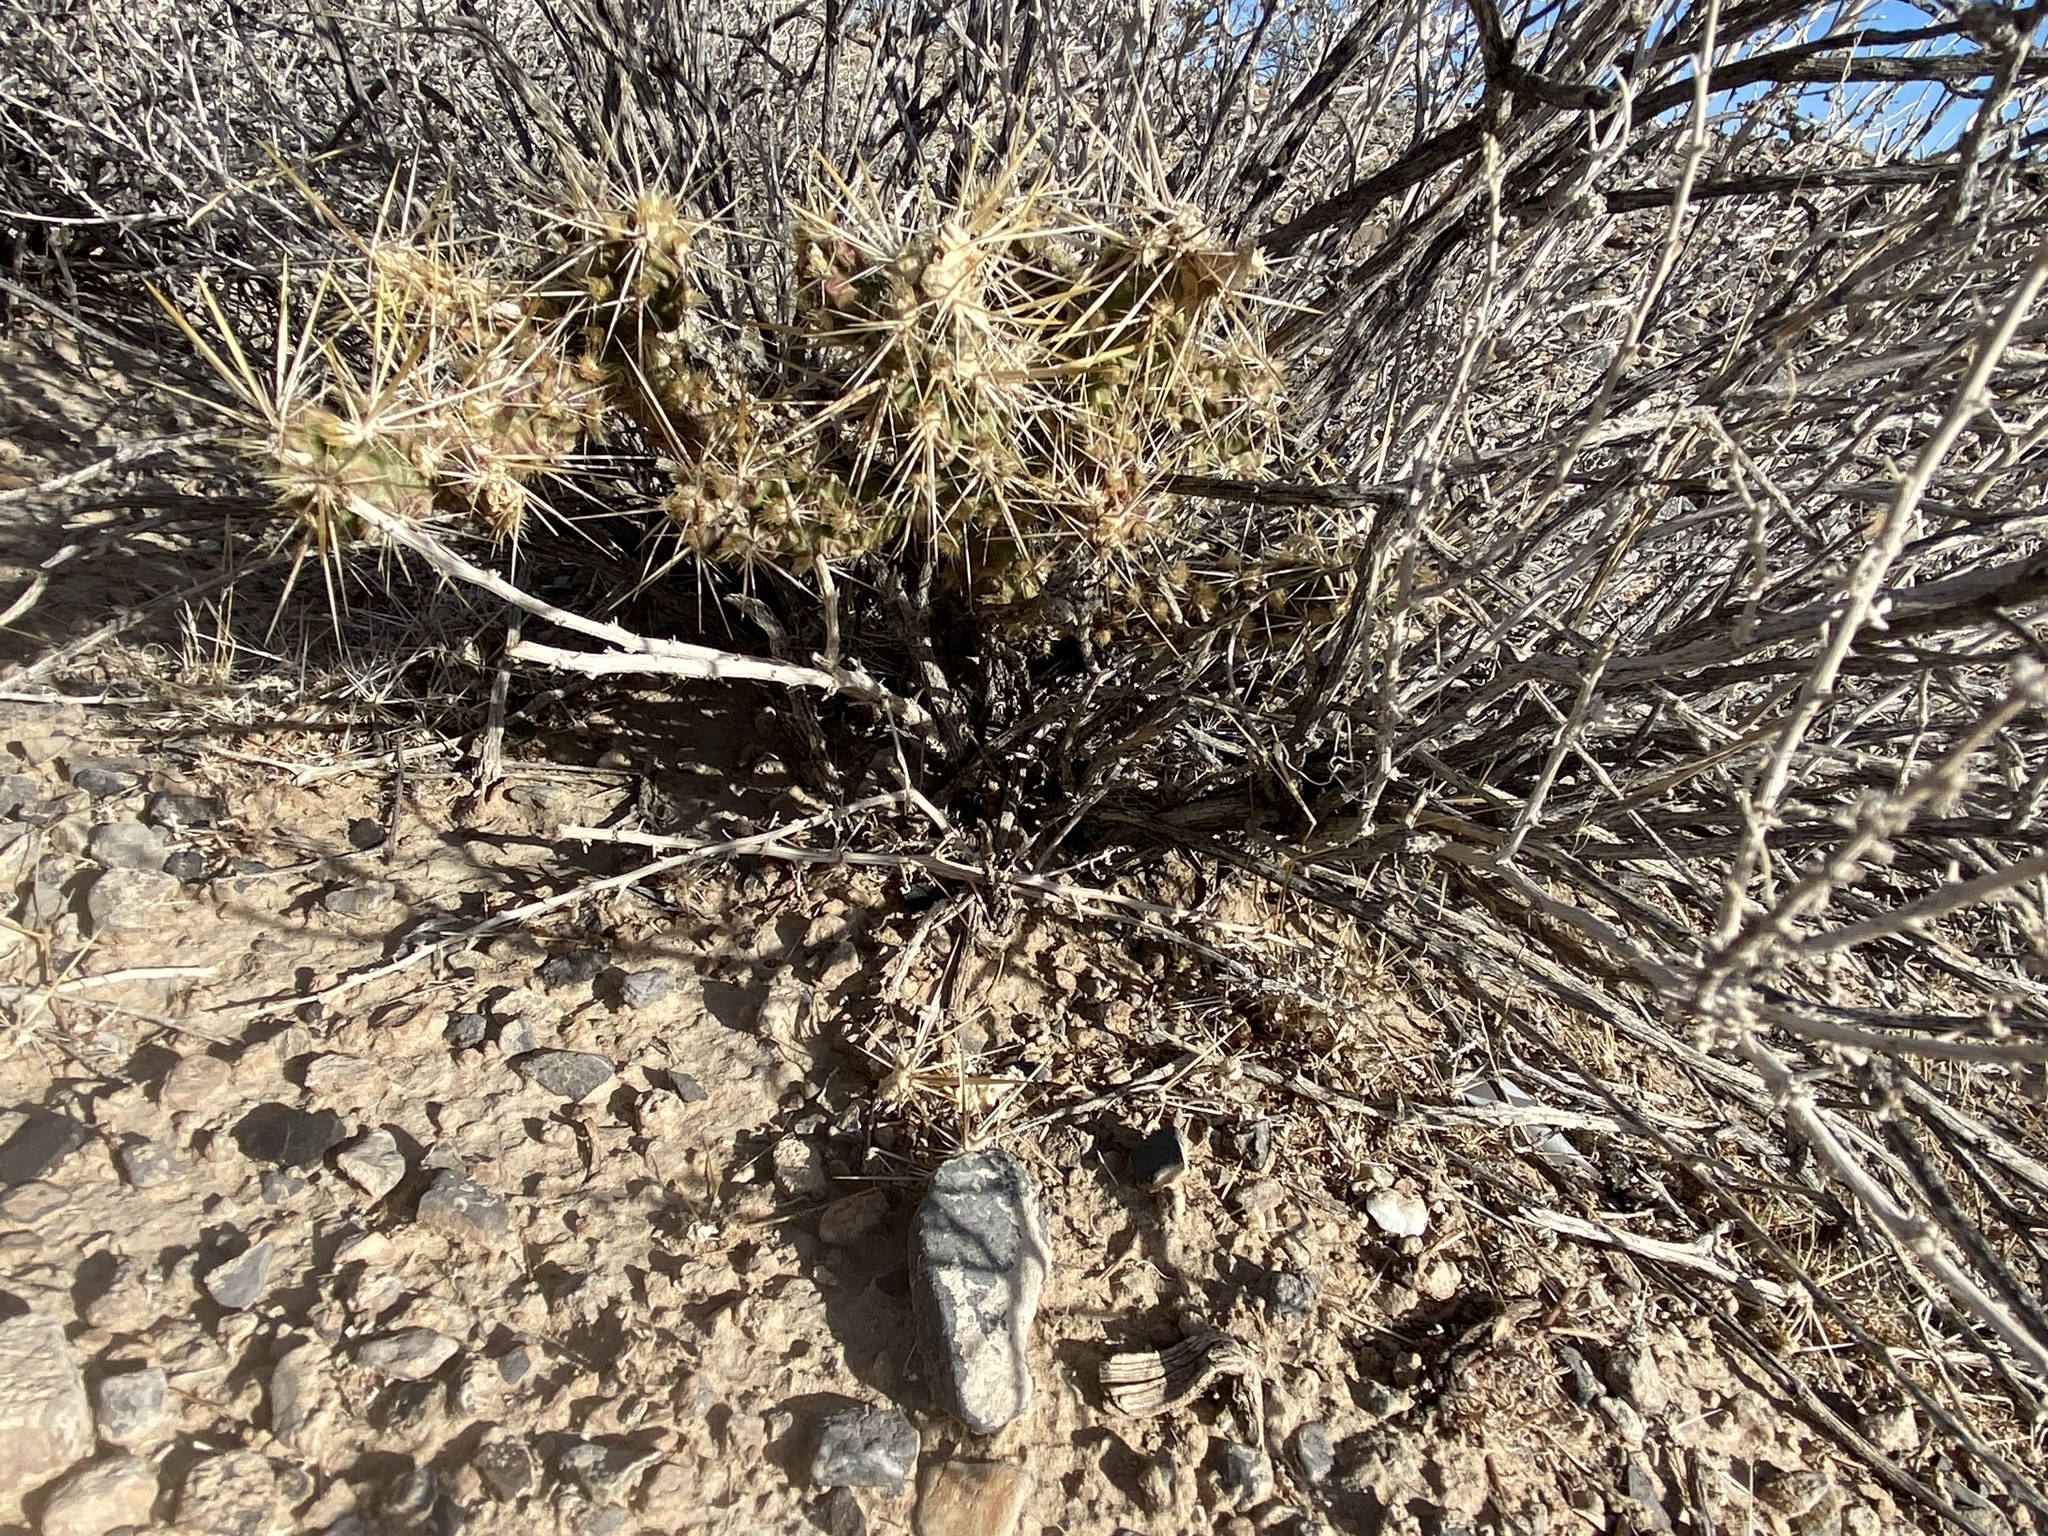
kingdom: Plantae
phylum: Tracheophyta
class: Magnoliopsida
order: Caryophyllales
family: Cactaceae
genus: Cylindropuntia
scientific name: Cylindropuntia echinocarpa
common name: Ground cholla
